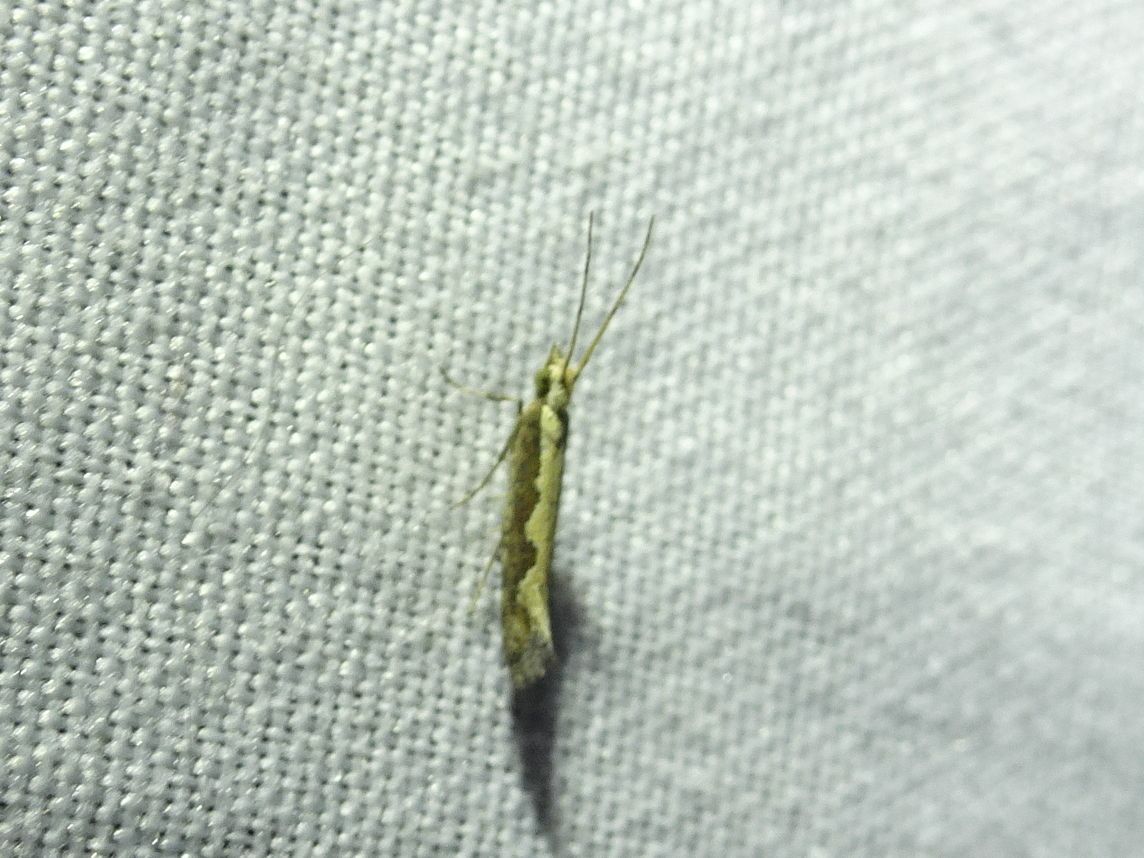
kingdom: Animalia
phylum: Arthropoda
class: Insecta
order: Lepidoptera
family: Plutellidae
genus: Plutella
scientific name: Plutella xylostella
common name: Diamond-back moth
